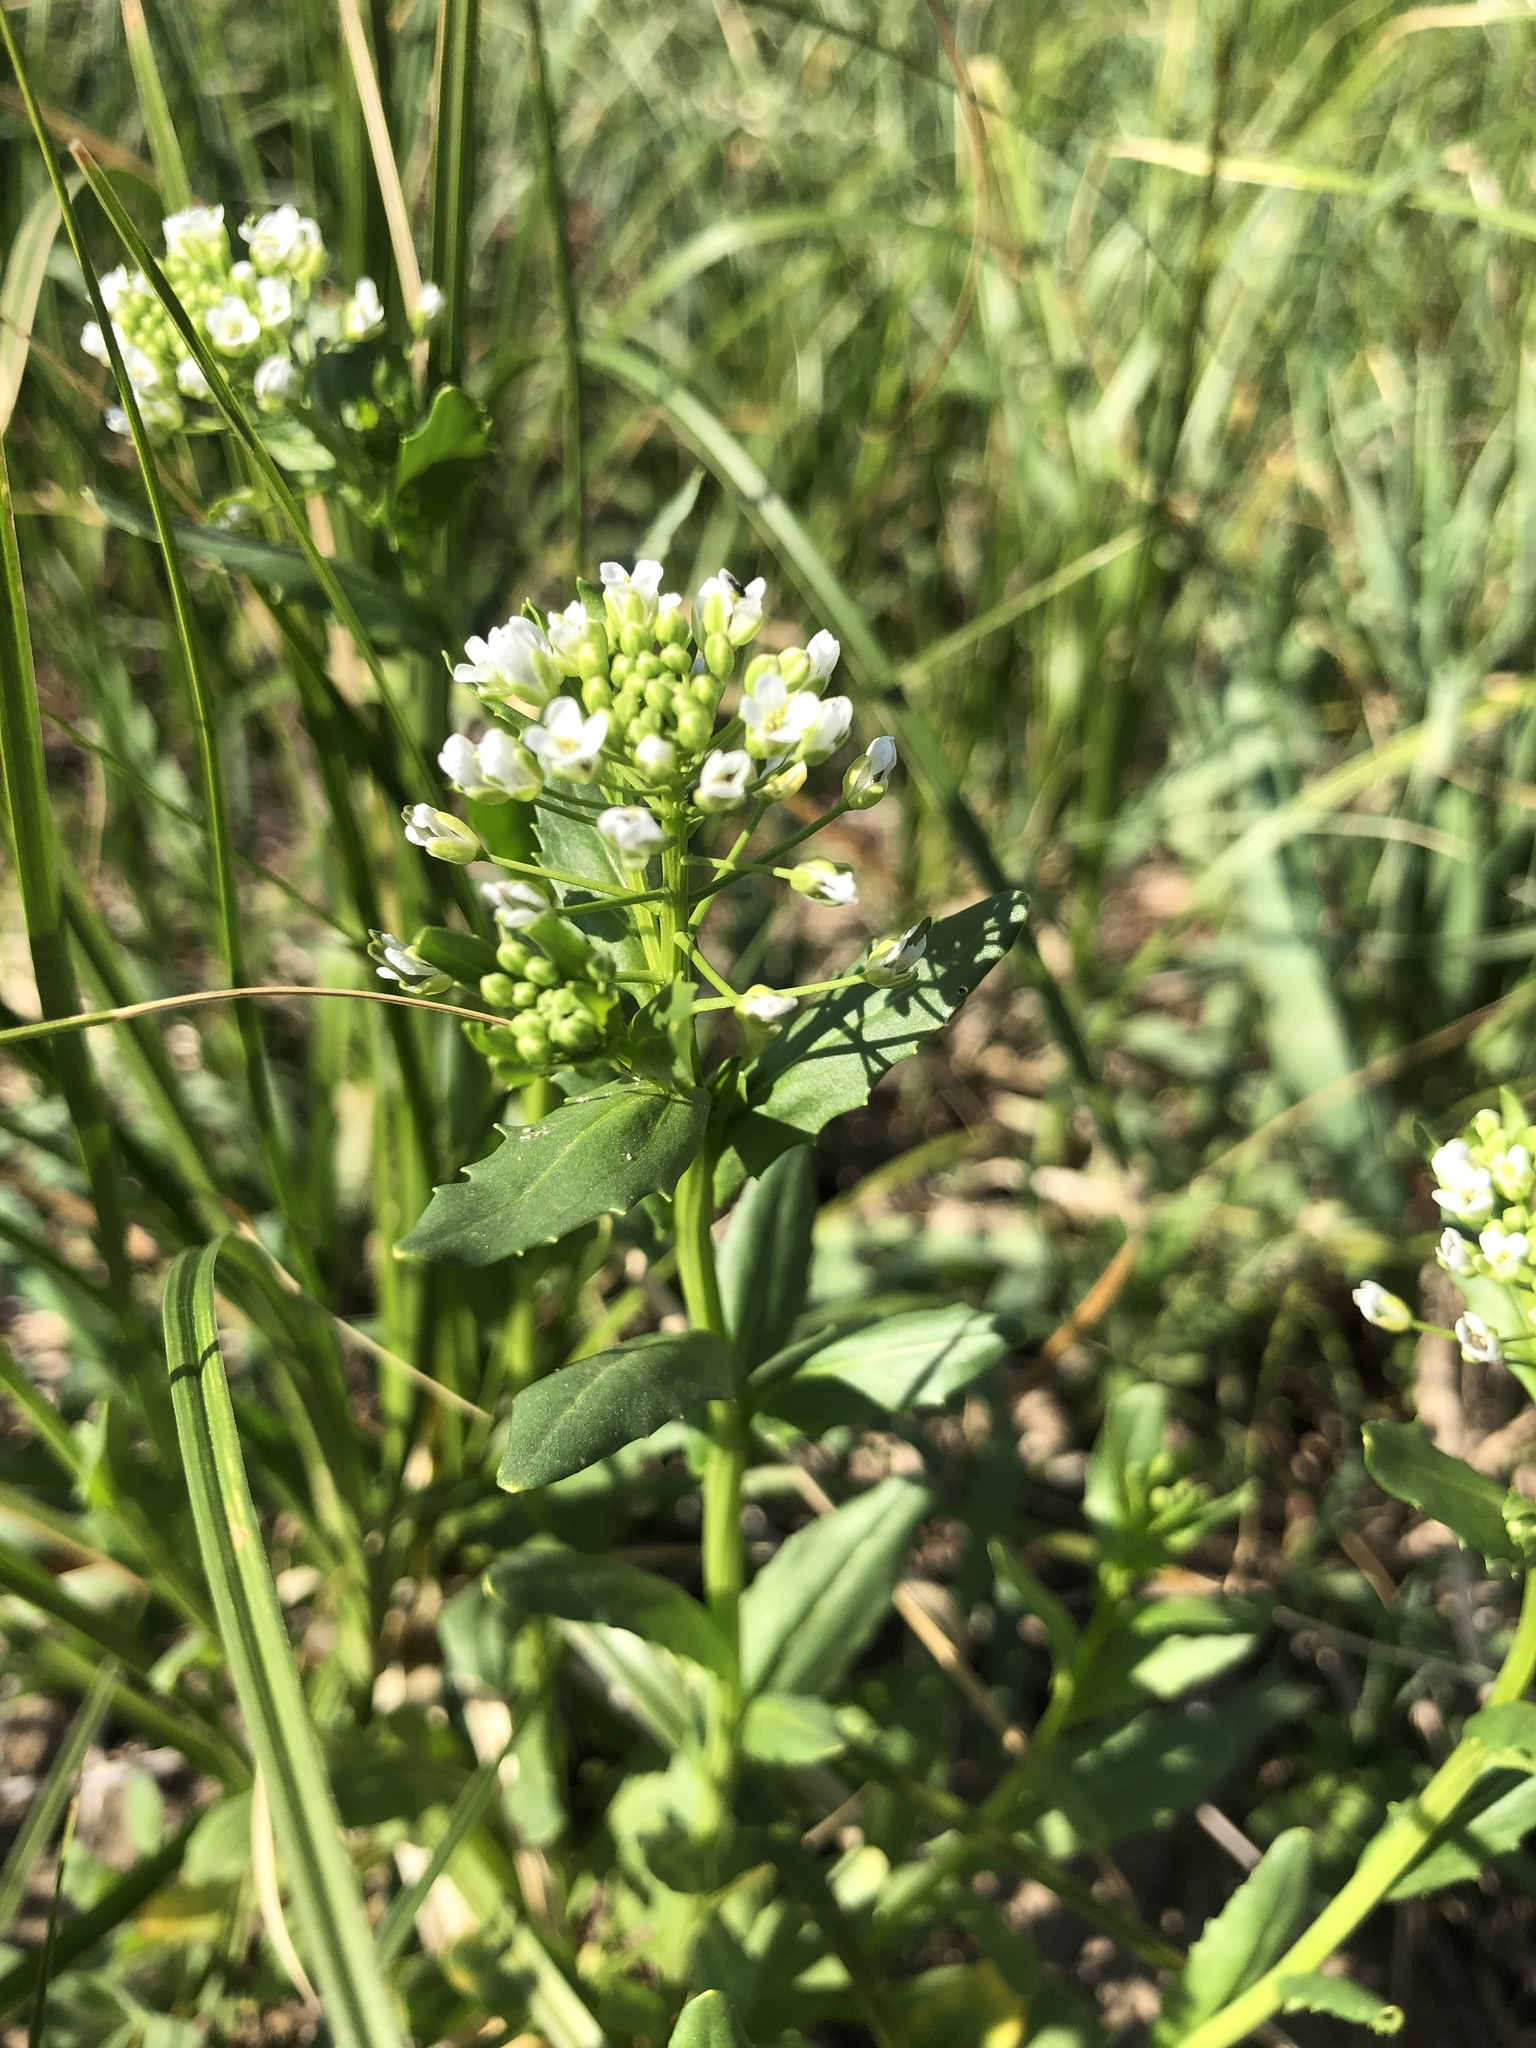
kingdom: Plantae
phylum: Tracheophyta
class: Magnoliopsida
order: Brassicales
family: Brassicaceae
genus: Thlaspi
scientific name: Thlaspi arvense
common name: Field pennycress
